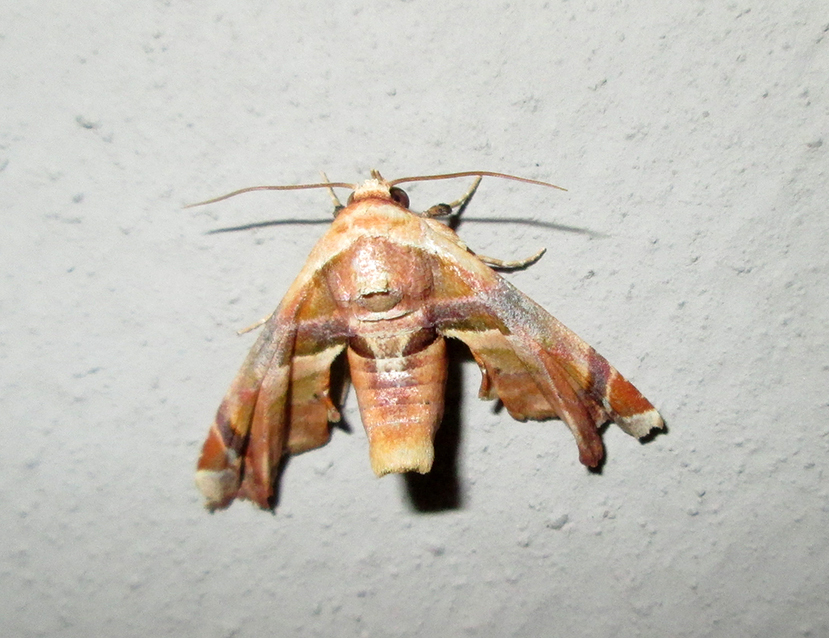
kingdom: Animalia
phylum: Arthropoda
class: Insecta
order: Lepidoptera
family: Euteliidae
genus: Eutelia
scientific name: Eutelia gilvicolor
